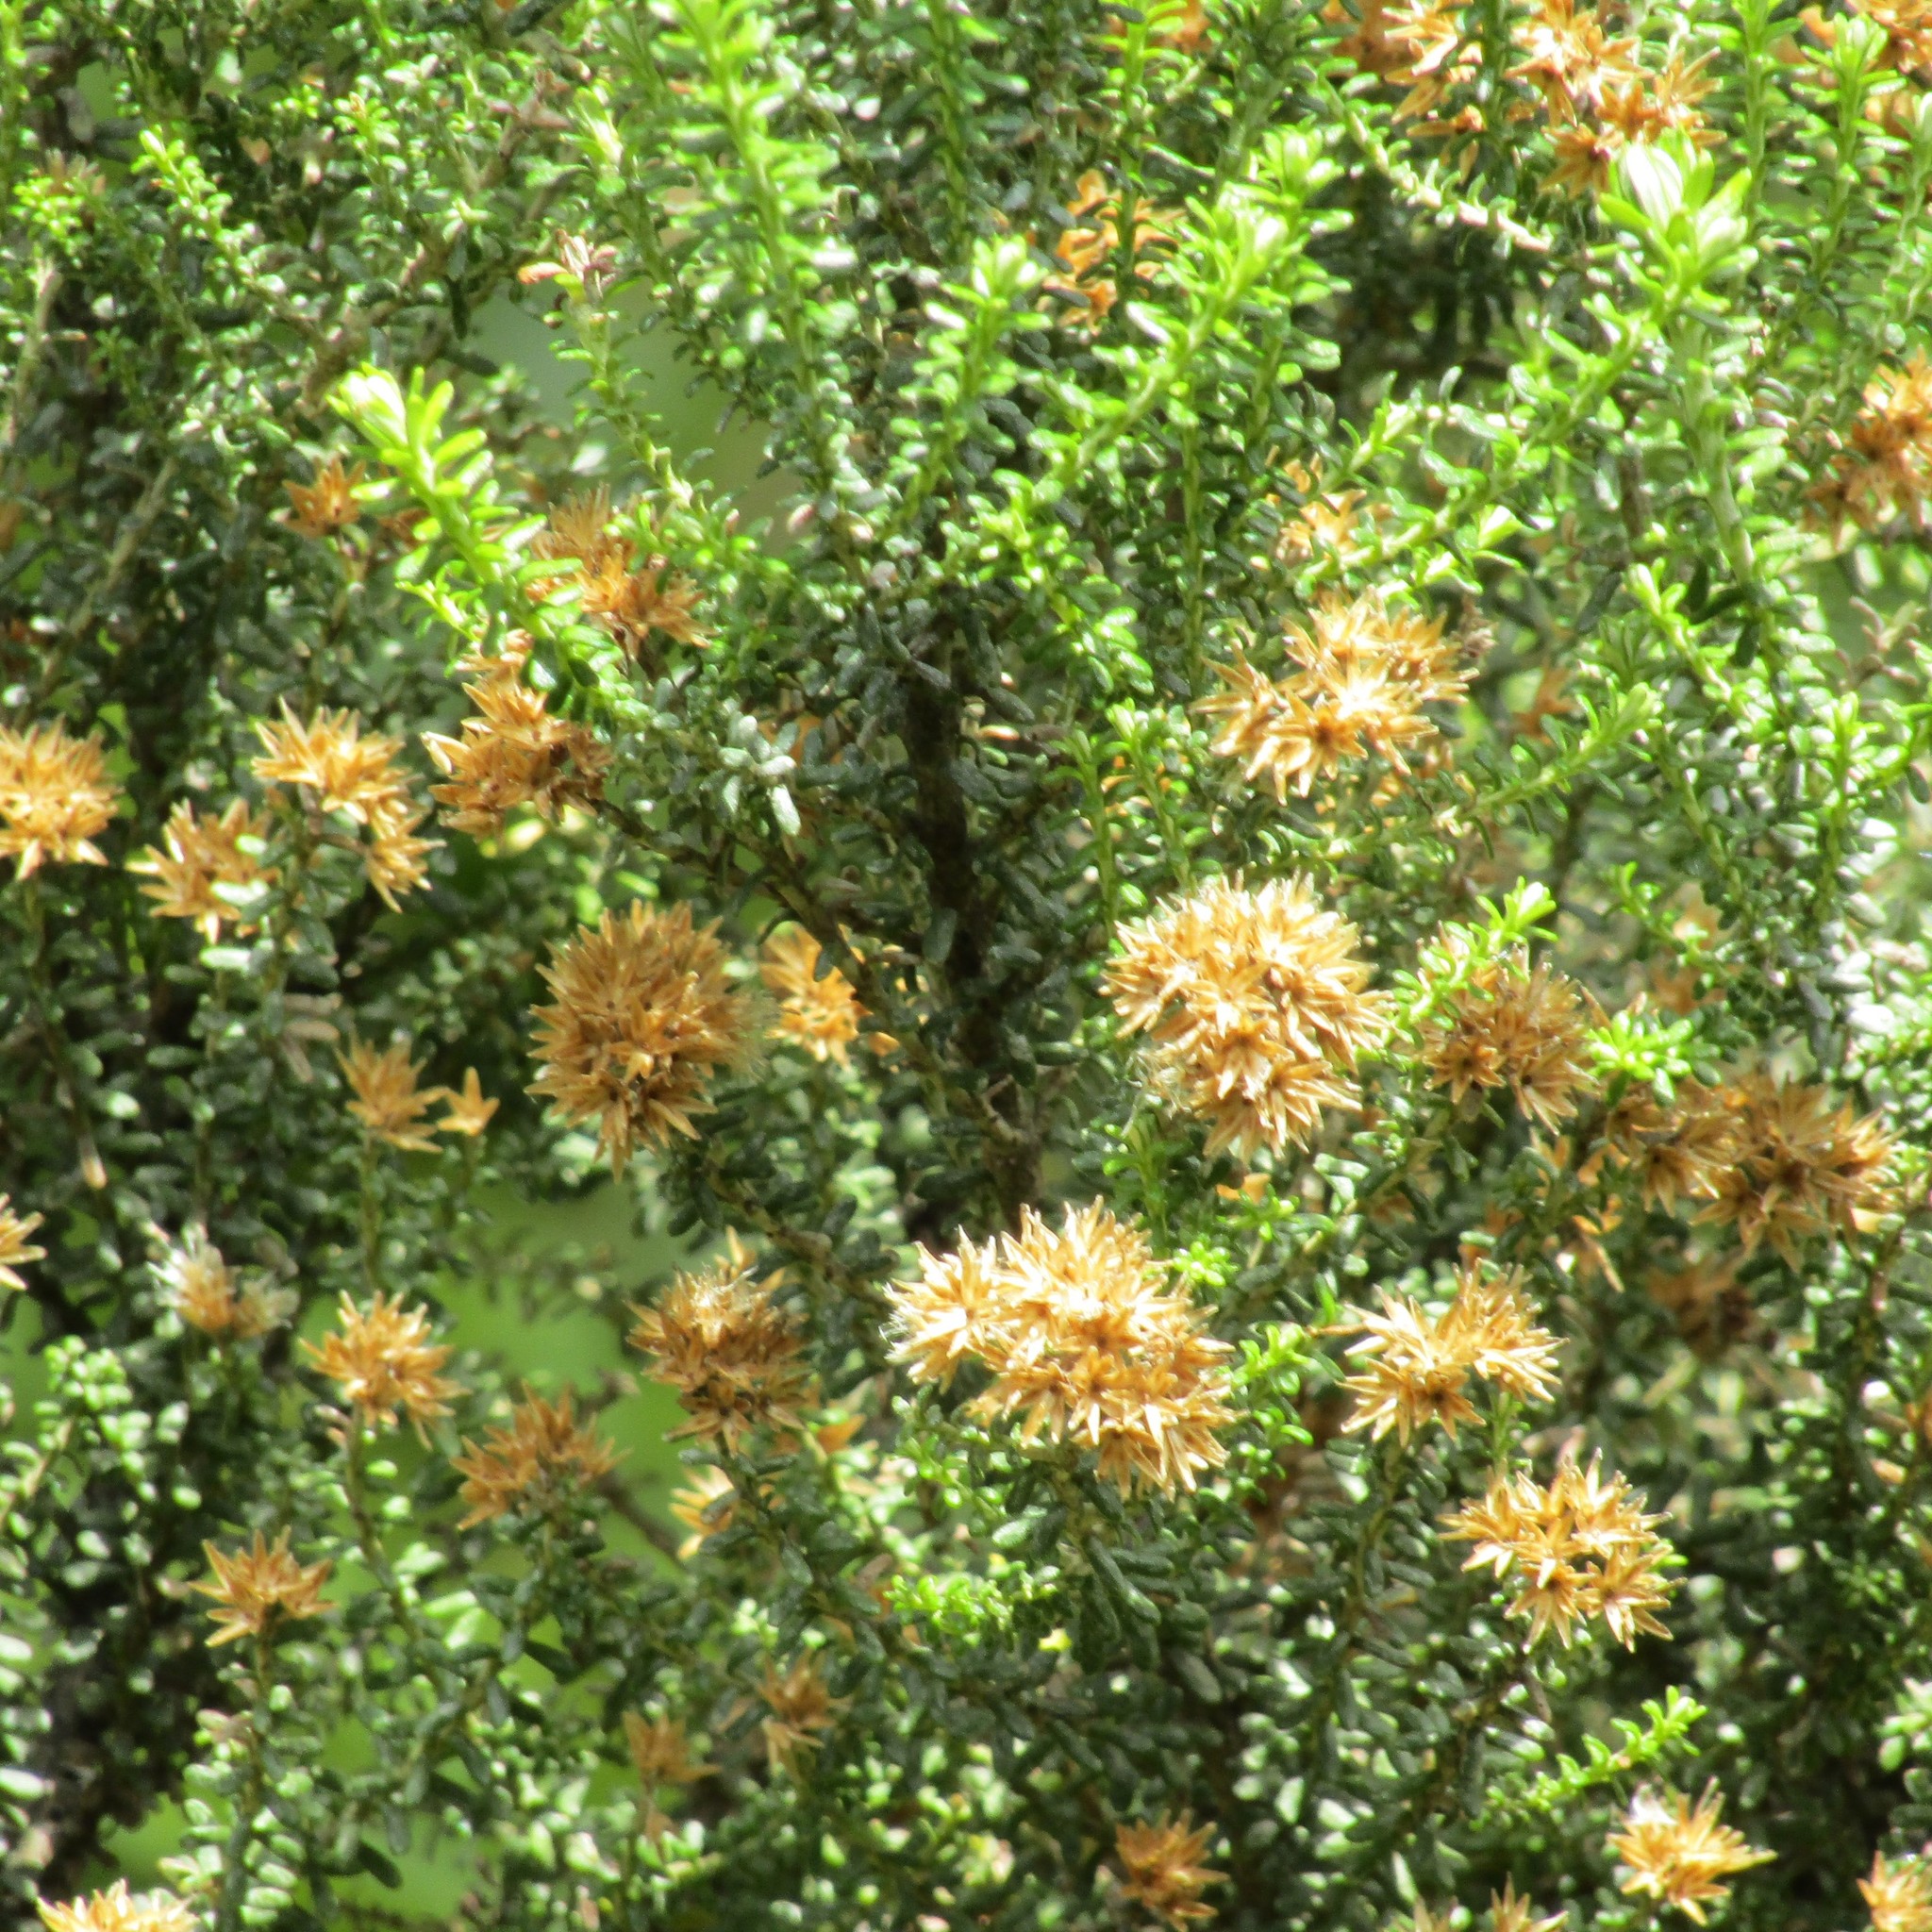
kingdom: Plantae
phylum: Tracheophyta
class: Magnoliopsida
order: Asterales
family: Asteraceae
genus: Ozothamnus
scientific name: Ozothamnus leptophyllus
